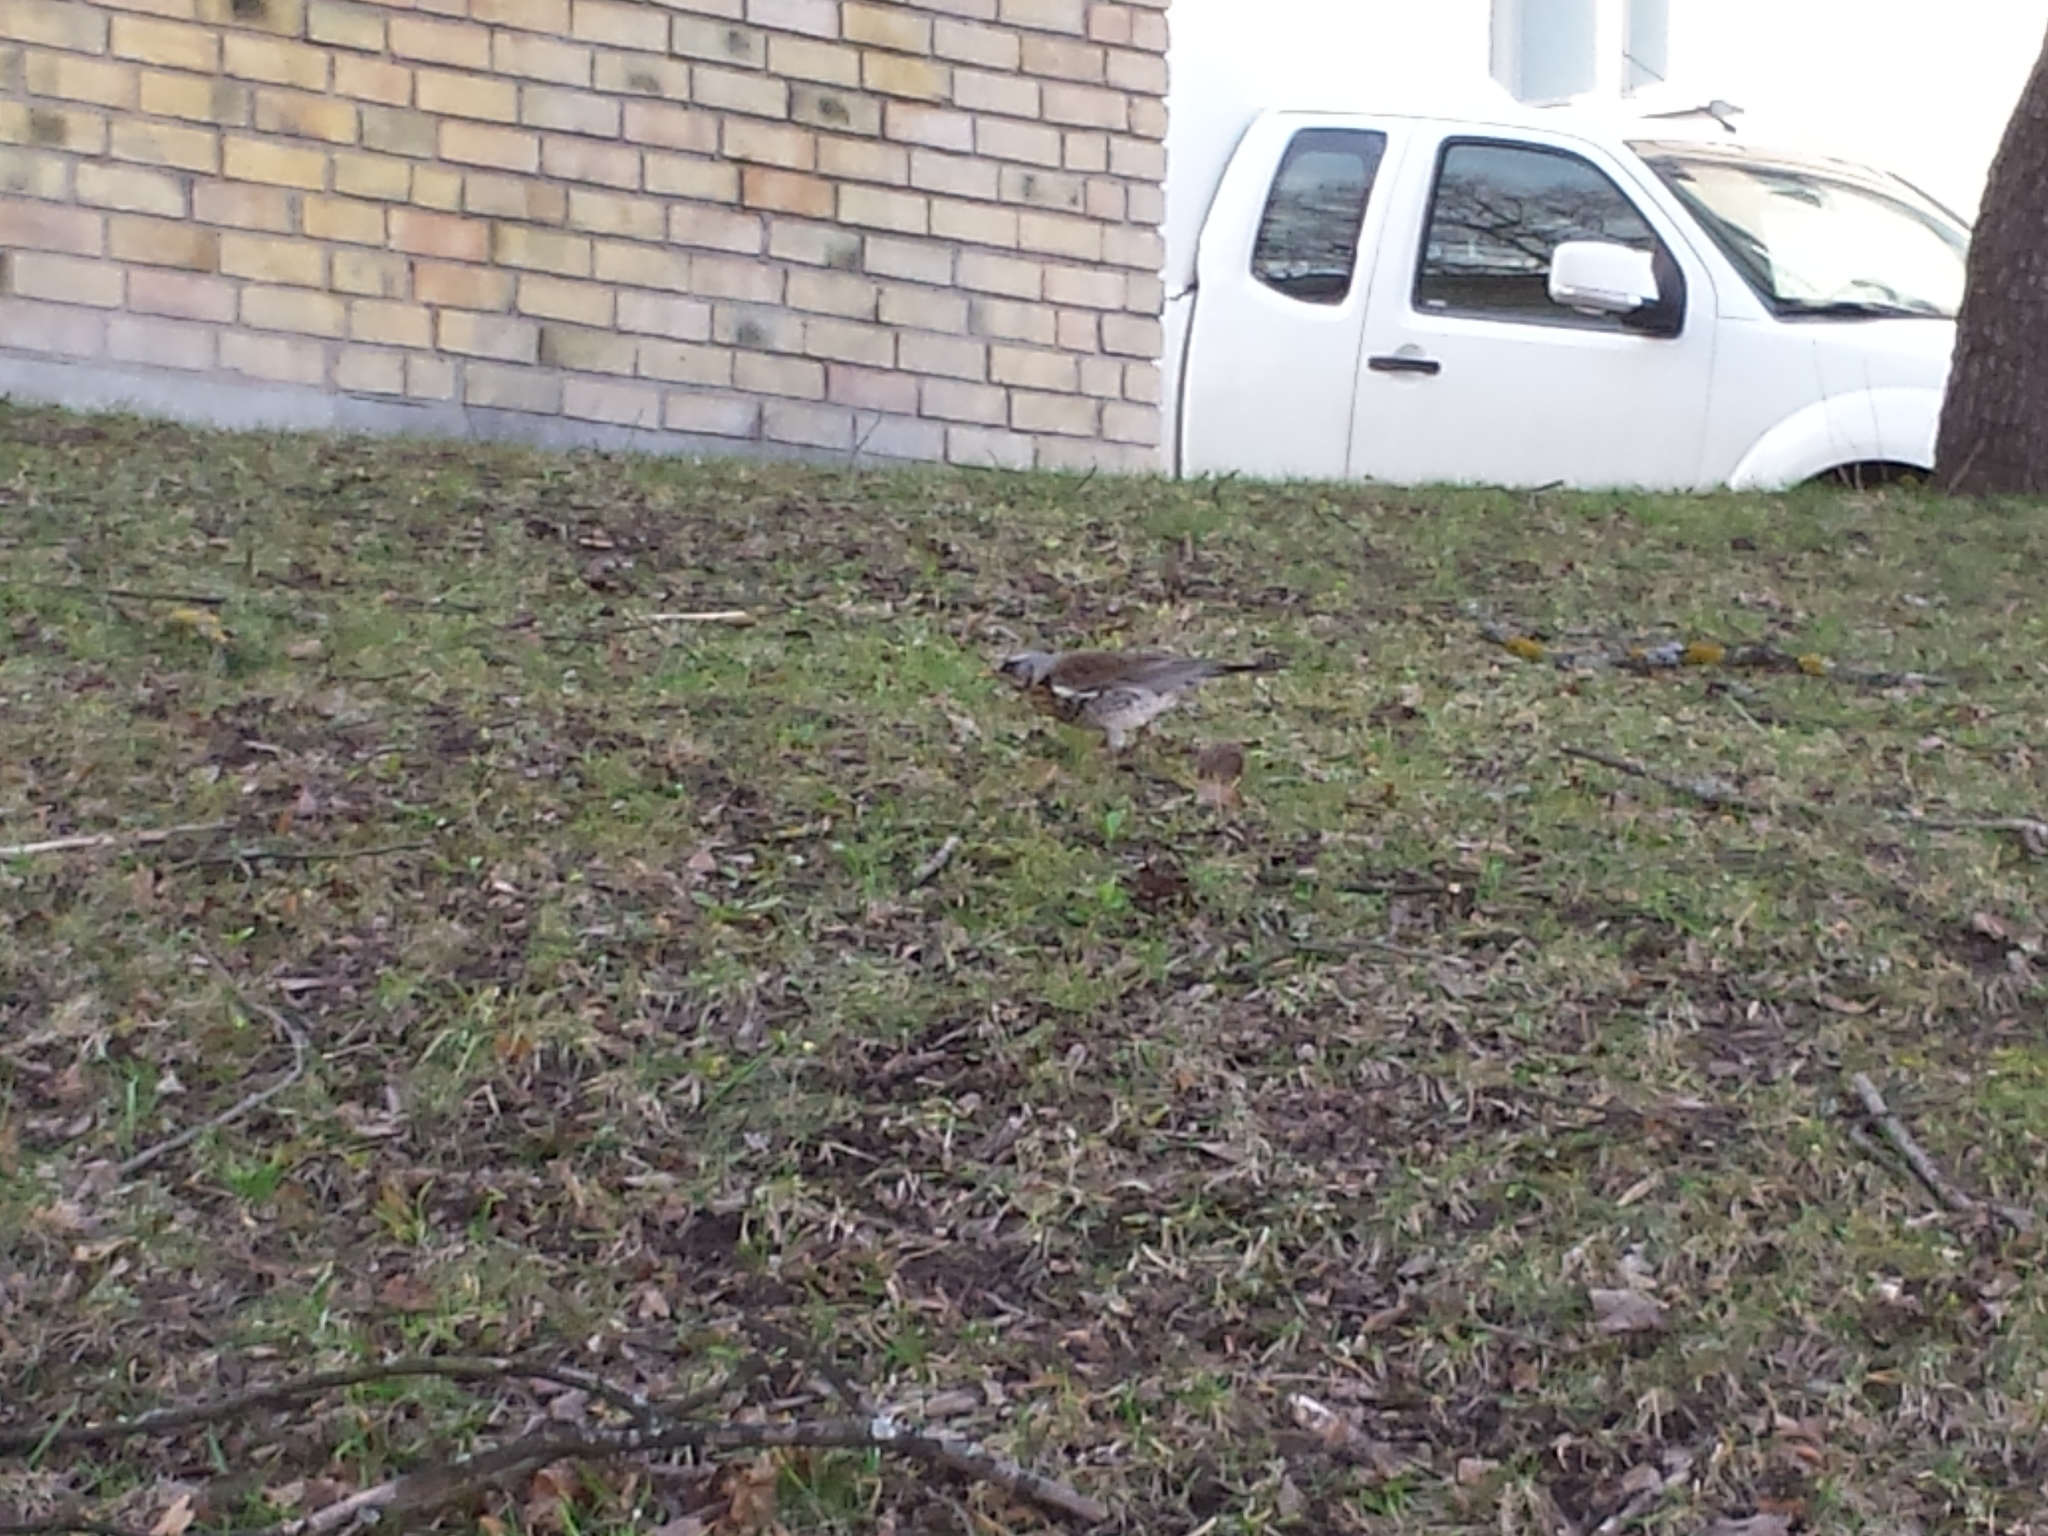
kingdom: Animalia
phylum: Chordata
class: Aves
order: Passeriformes
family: Turdidae
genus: Turdus
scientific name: Turdus pilaris
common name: Fieldfare
